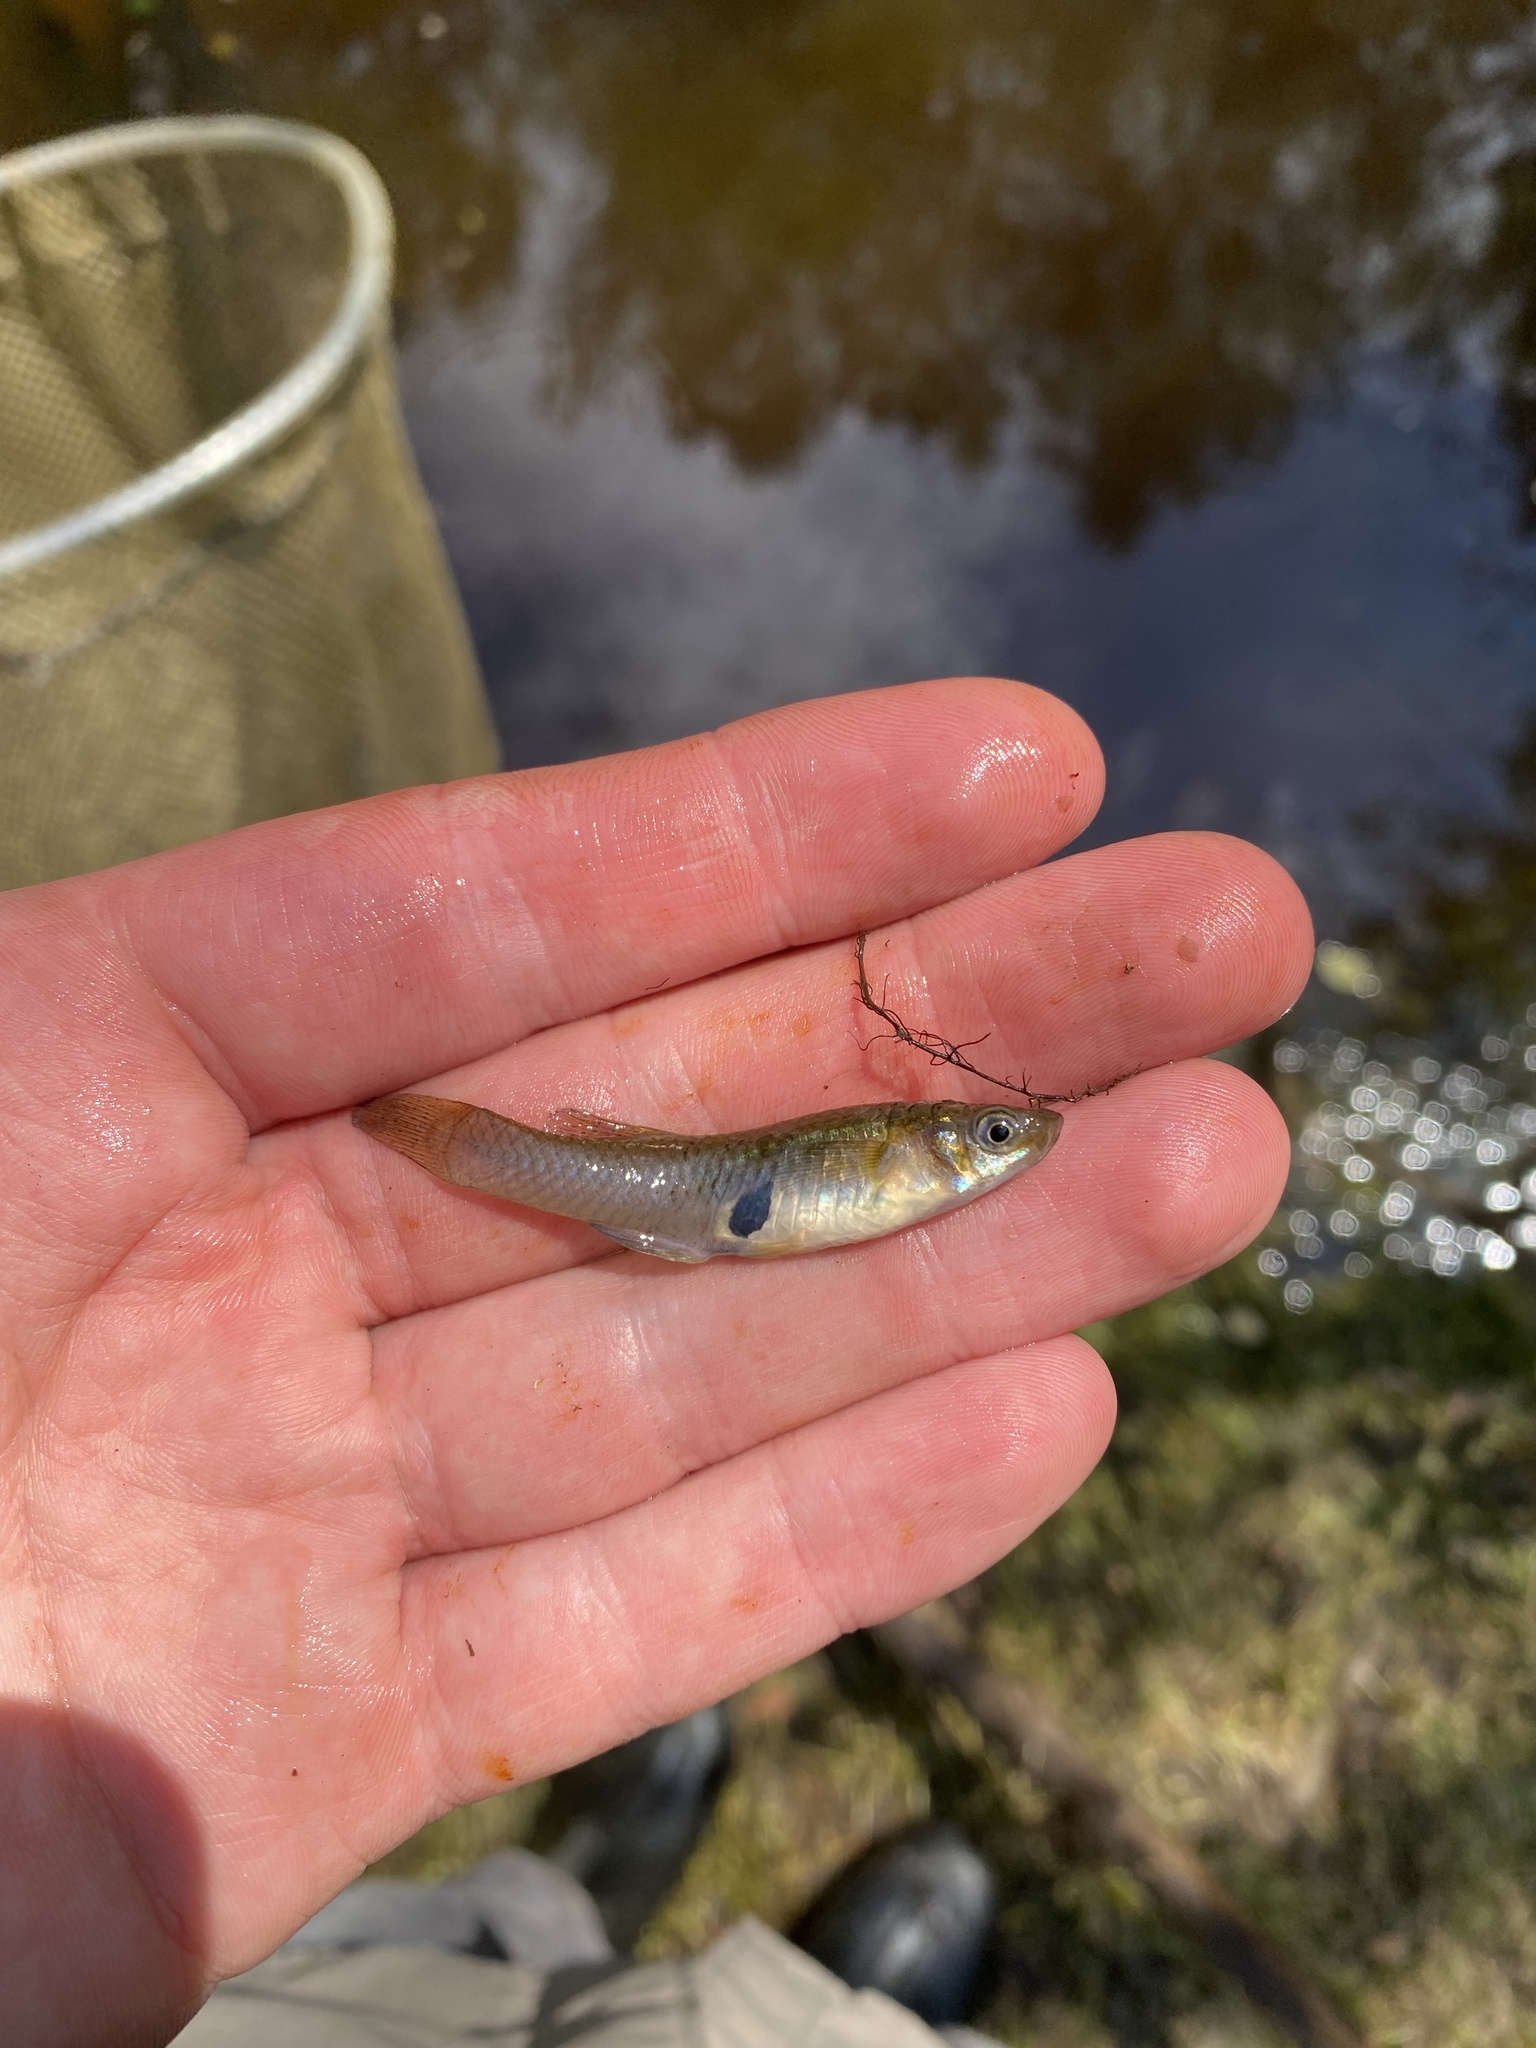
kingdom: Animalia
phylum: Chordata
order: Cyprinodontiformes
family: Poeciliidae
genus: Gambusia
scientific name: Gambusia holbrooki
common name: Eastern mosquitofish
